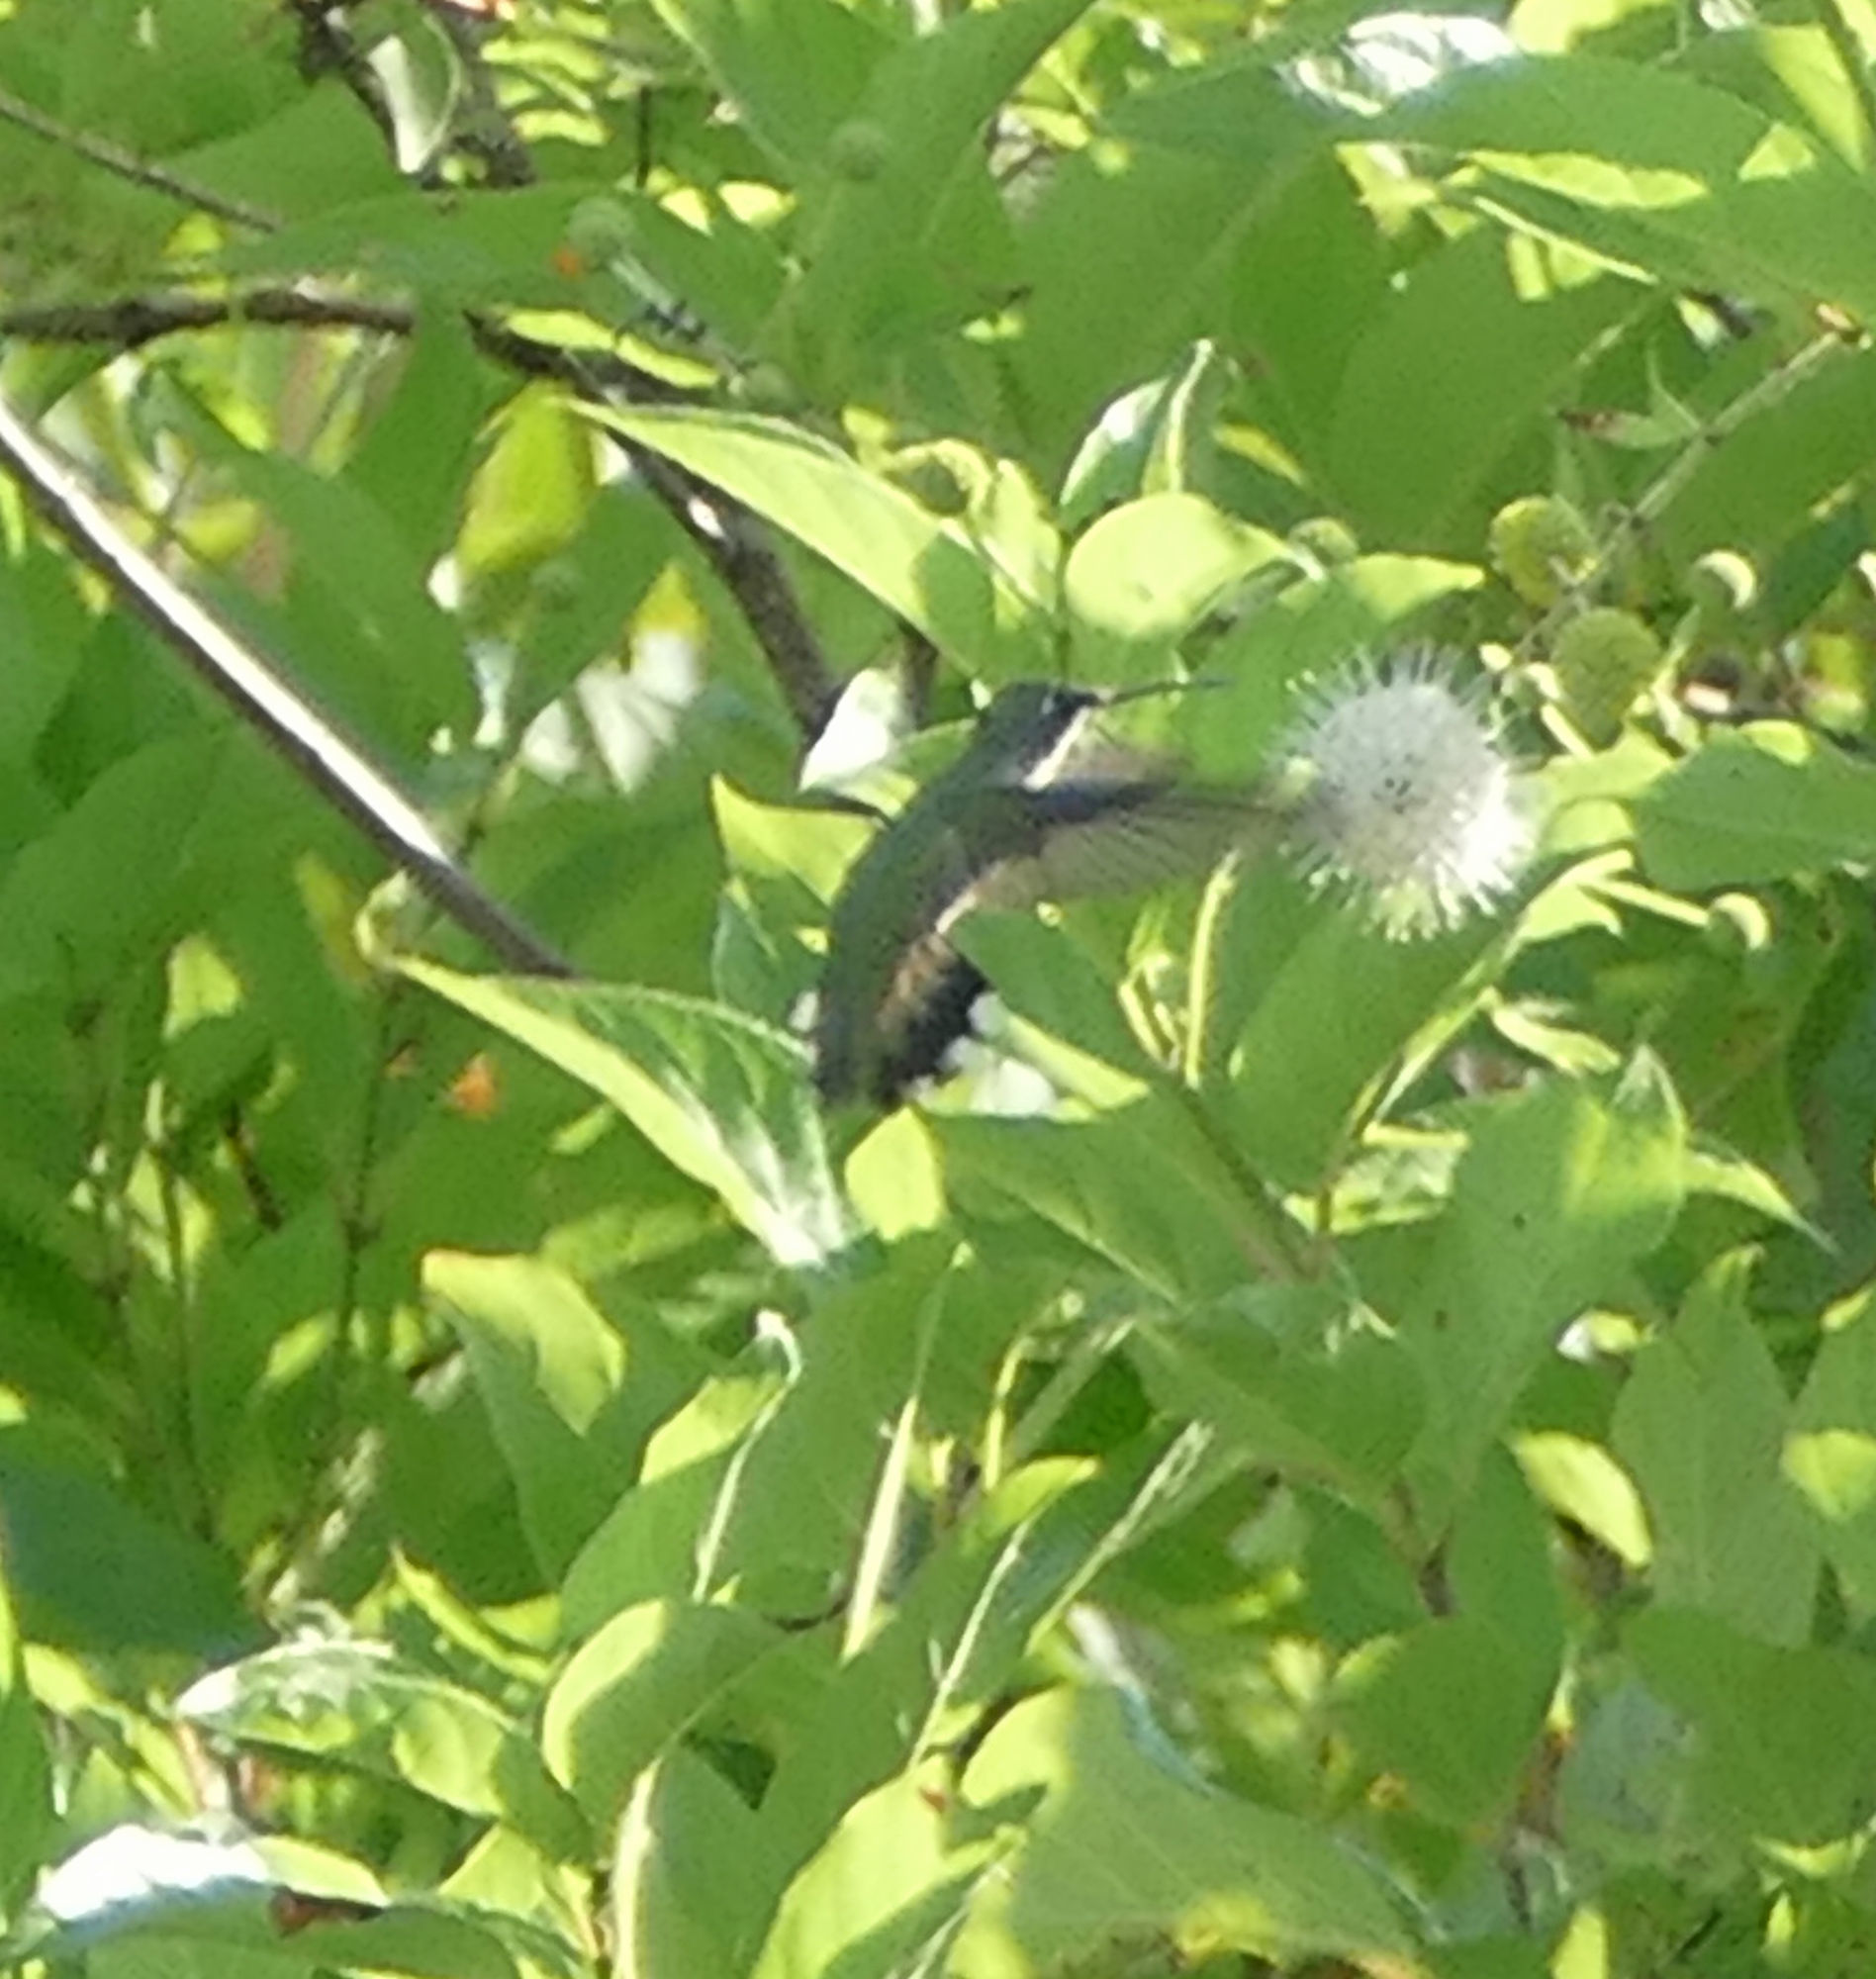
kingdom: Animalia
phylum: Chordata
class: Aves
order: Apodiformes
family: Trochilidae
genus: Archilochus
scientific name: Archilochus colubris
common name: Ruby-throated hummingbird
